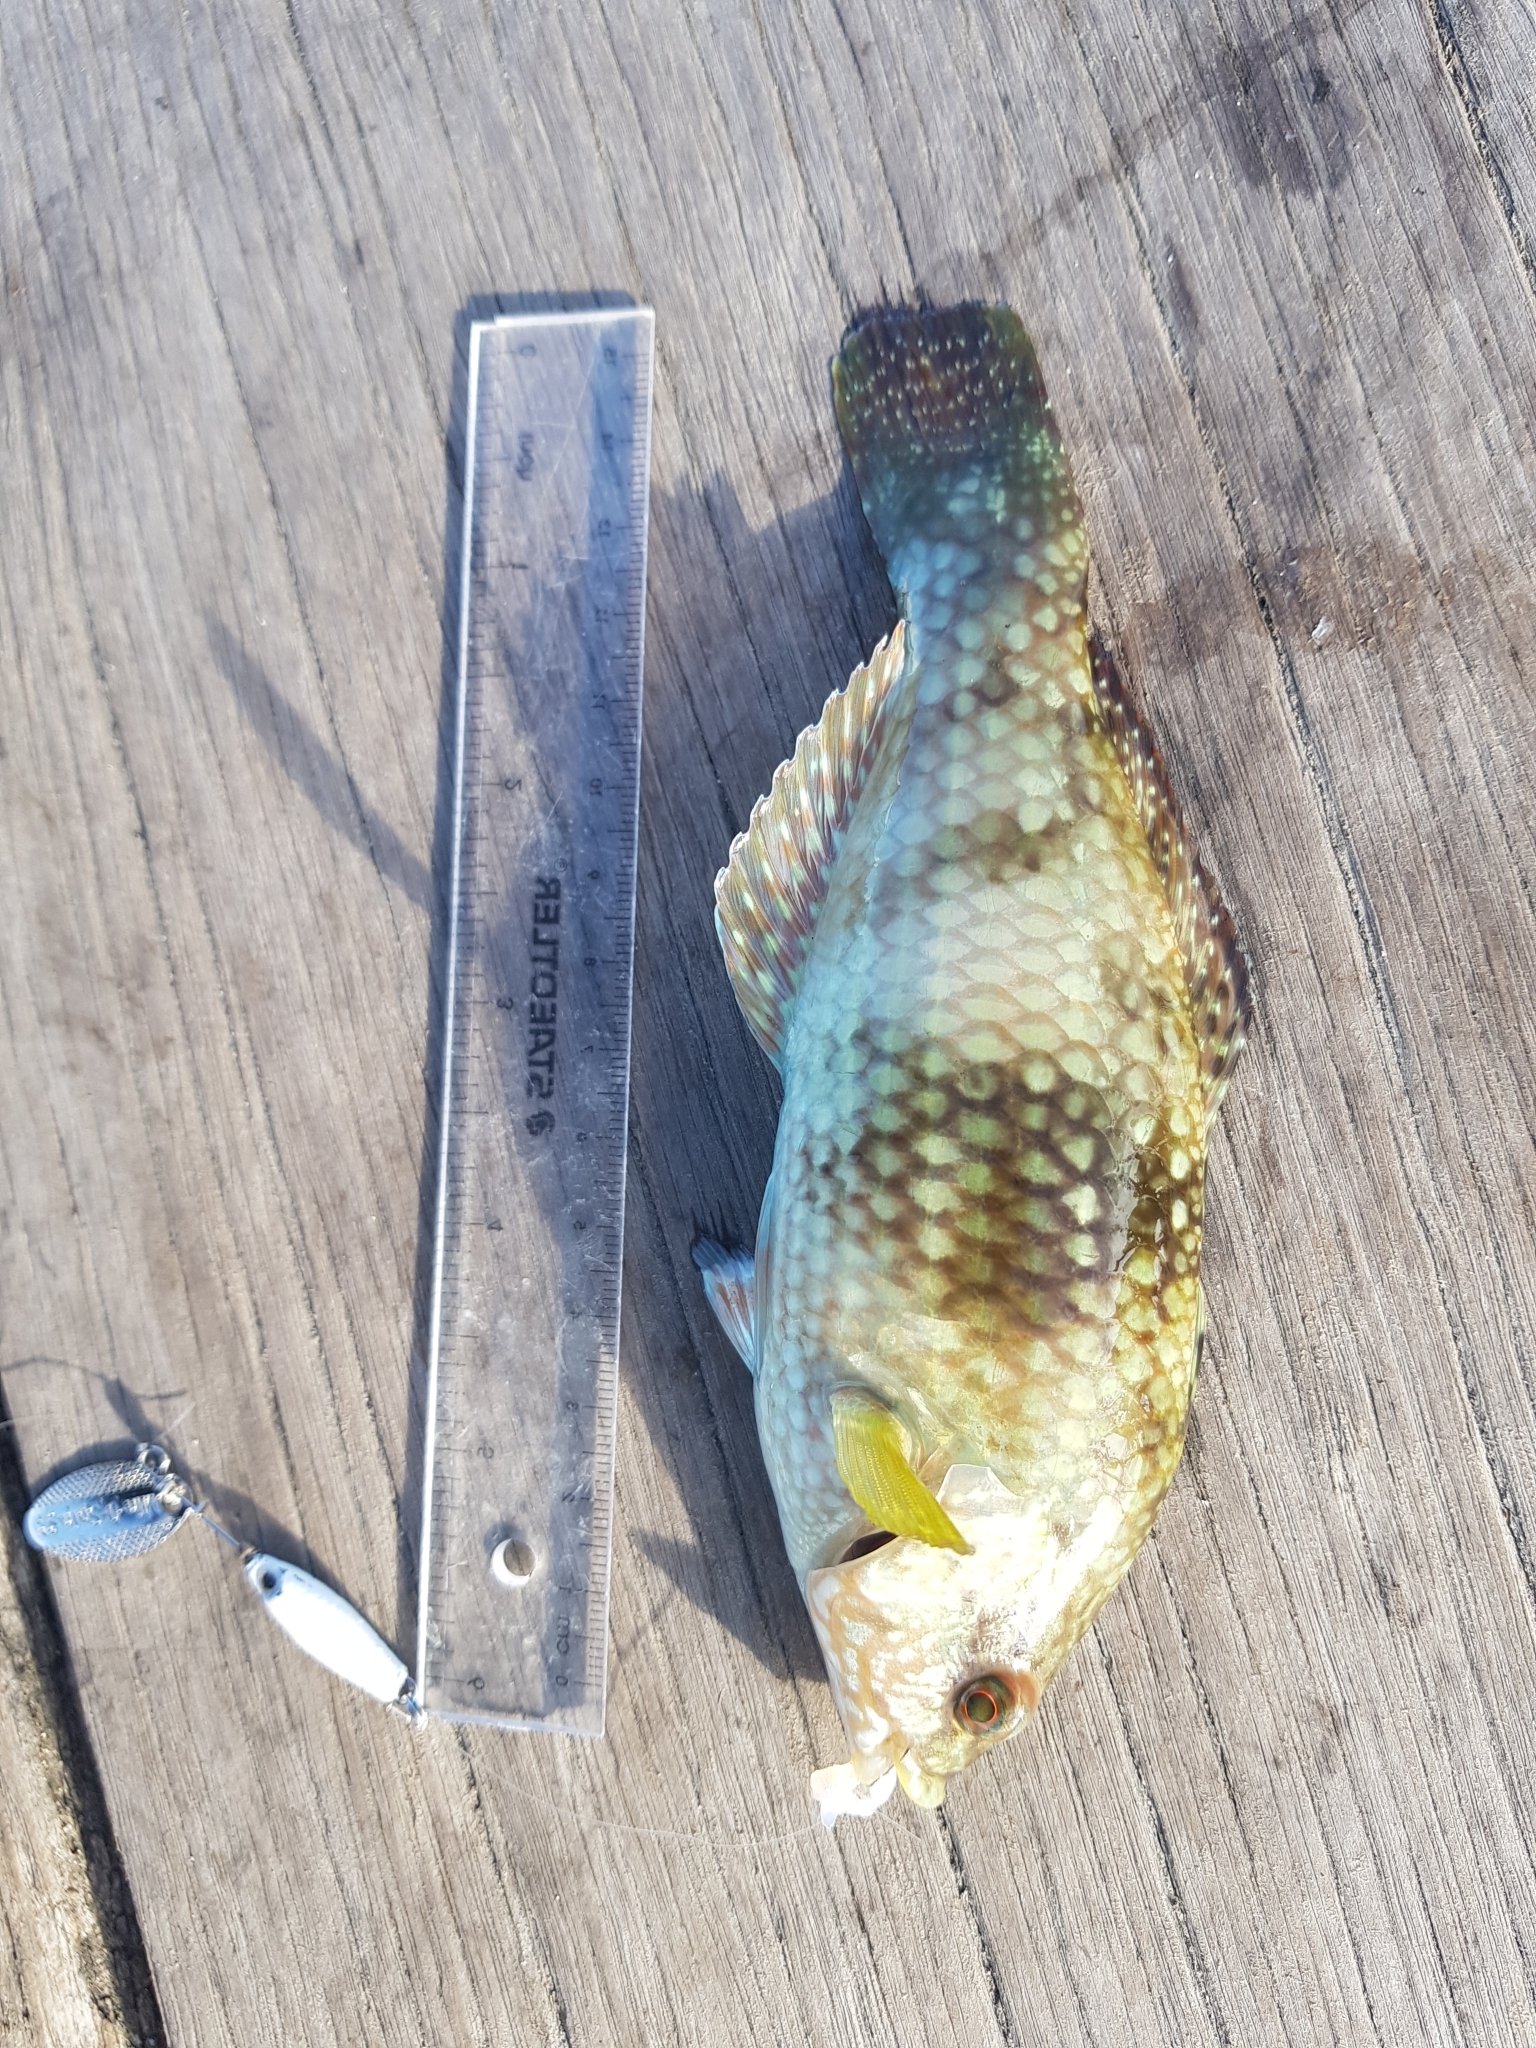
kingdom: Animalia
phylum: Chordata
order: Perciformes
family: Labridae
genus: Notolabrus
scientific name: Notolabrus tetricus
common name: Blue-throated parrotfish
